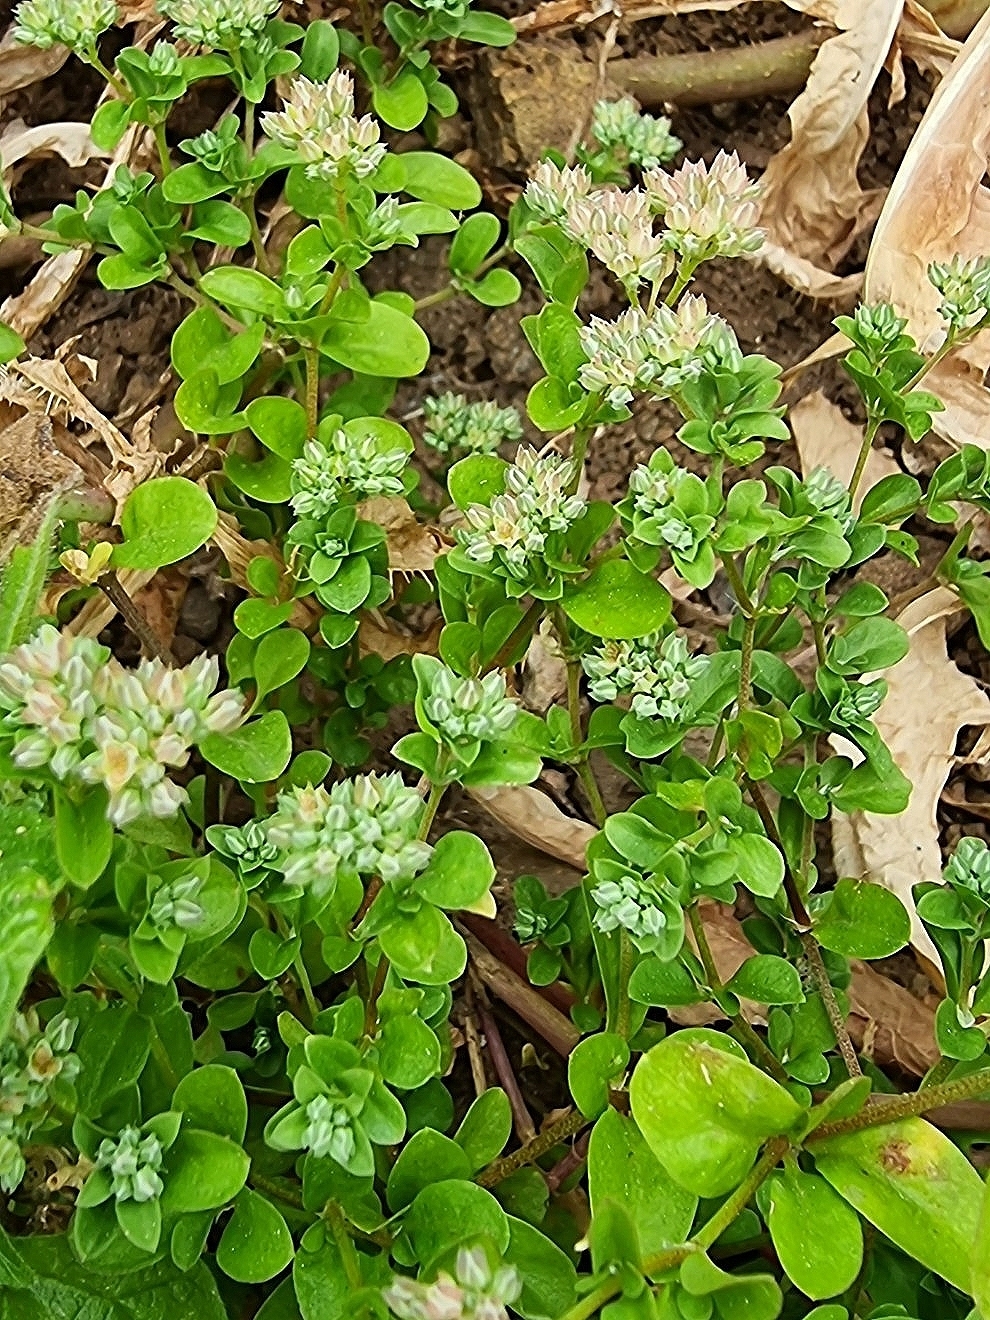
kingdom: Plantae
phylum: Tracheophyta
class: Magnoliopsida
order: Caryophyllales
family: Caryophyllaceae
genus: Polycarpon
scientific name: Polycarpon tetraphyllum
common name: Four-leaved all-seed
